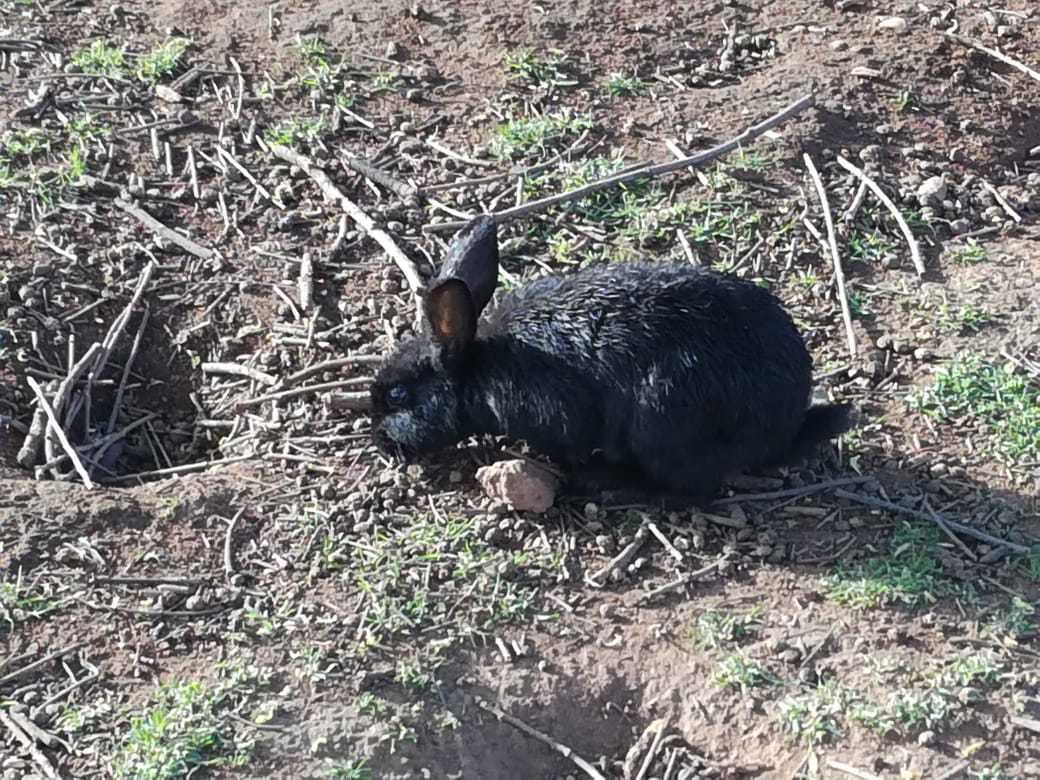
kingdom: Animalia
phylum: Chordata
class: Mammalia
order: Lagomorpha
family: Leporidae
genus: Oryctolagus
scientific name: Oryctolagus cuniculus
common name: European rabbit
